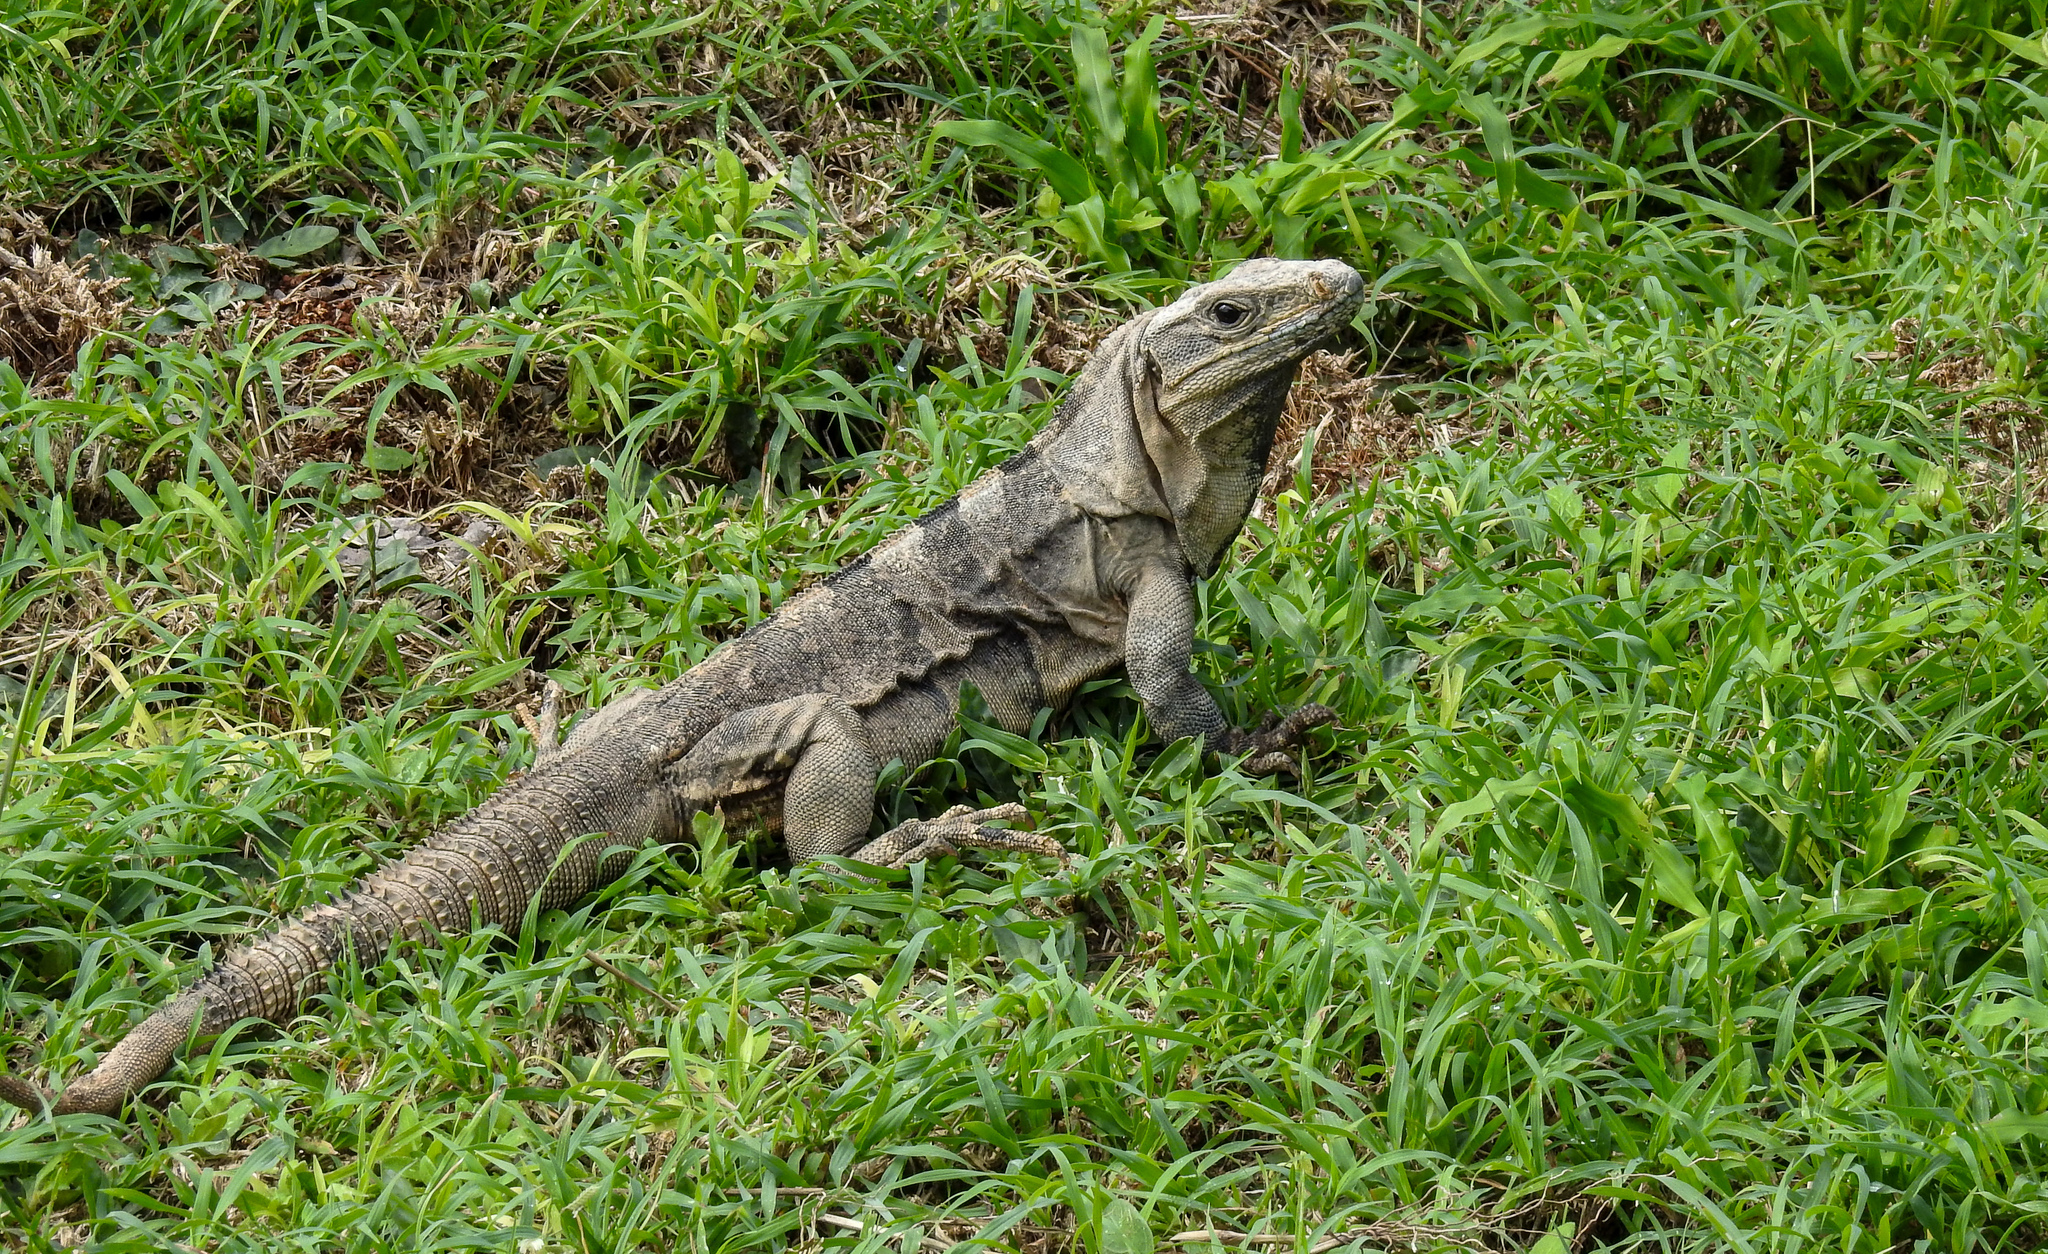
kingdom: Animalia
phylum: Chordata
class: Squamata
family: Iguanidae
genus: Ctenosaura
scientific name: Ctenosaura similis
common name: Black spiny-tailed iguana
